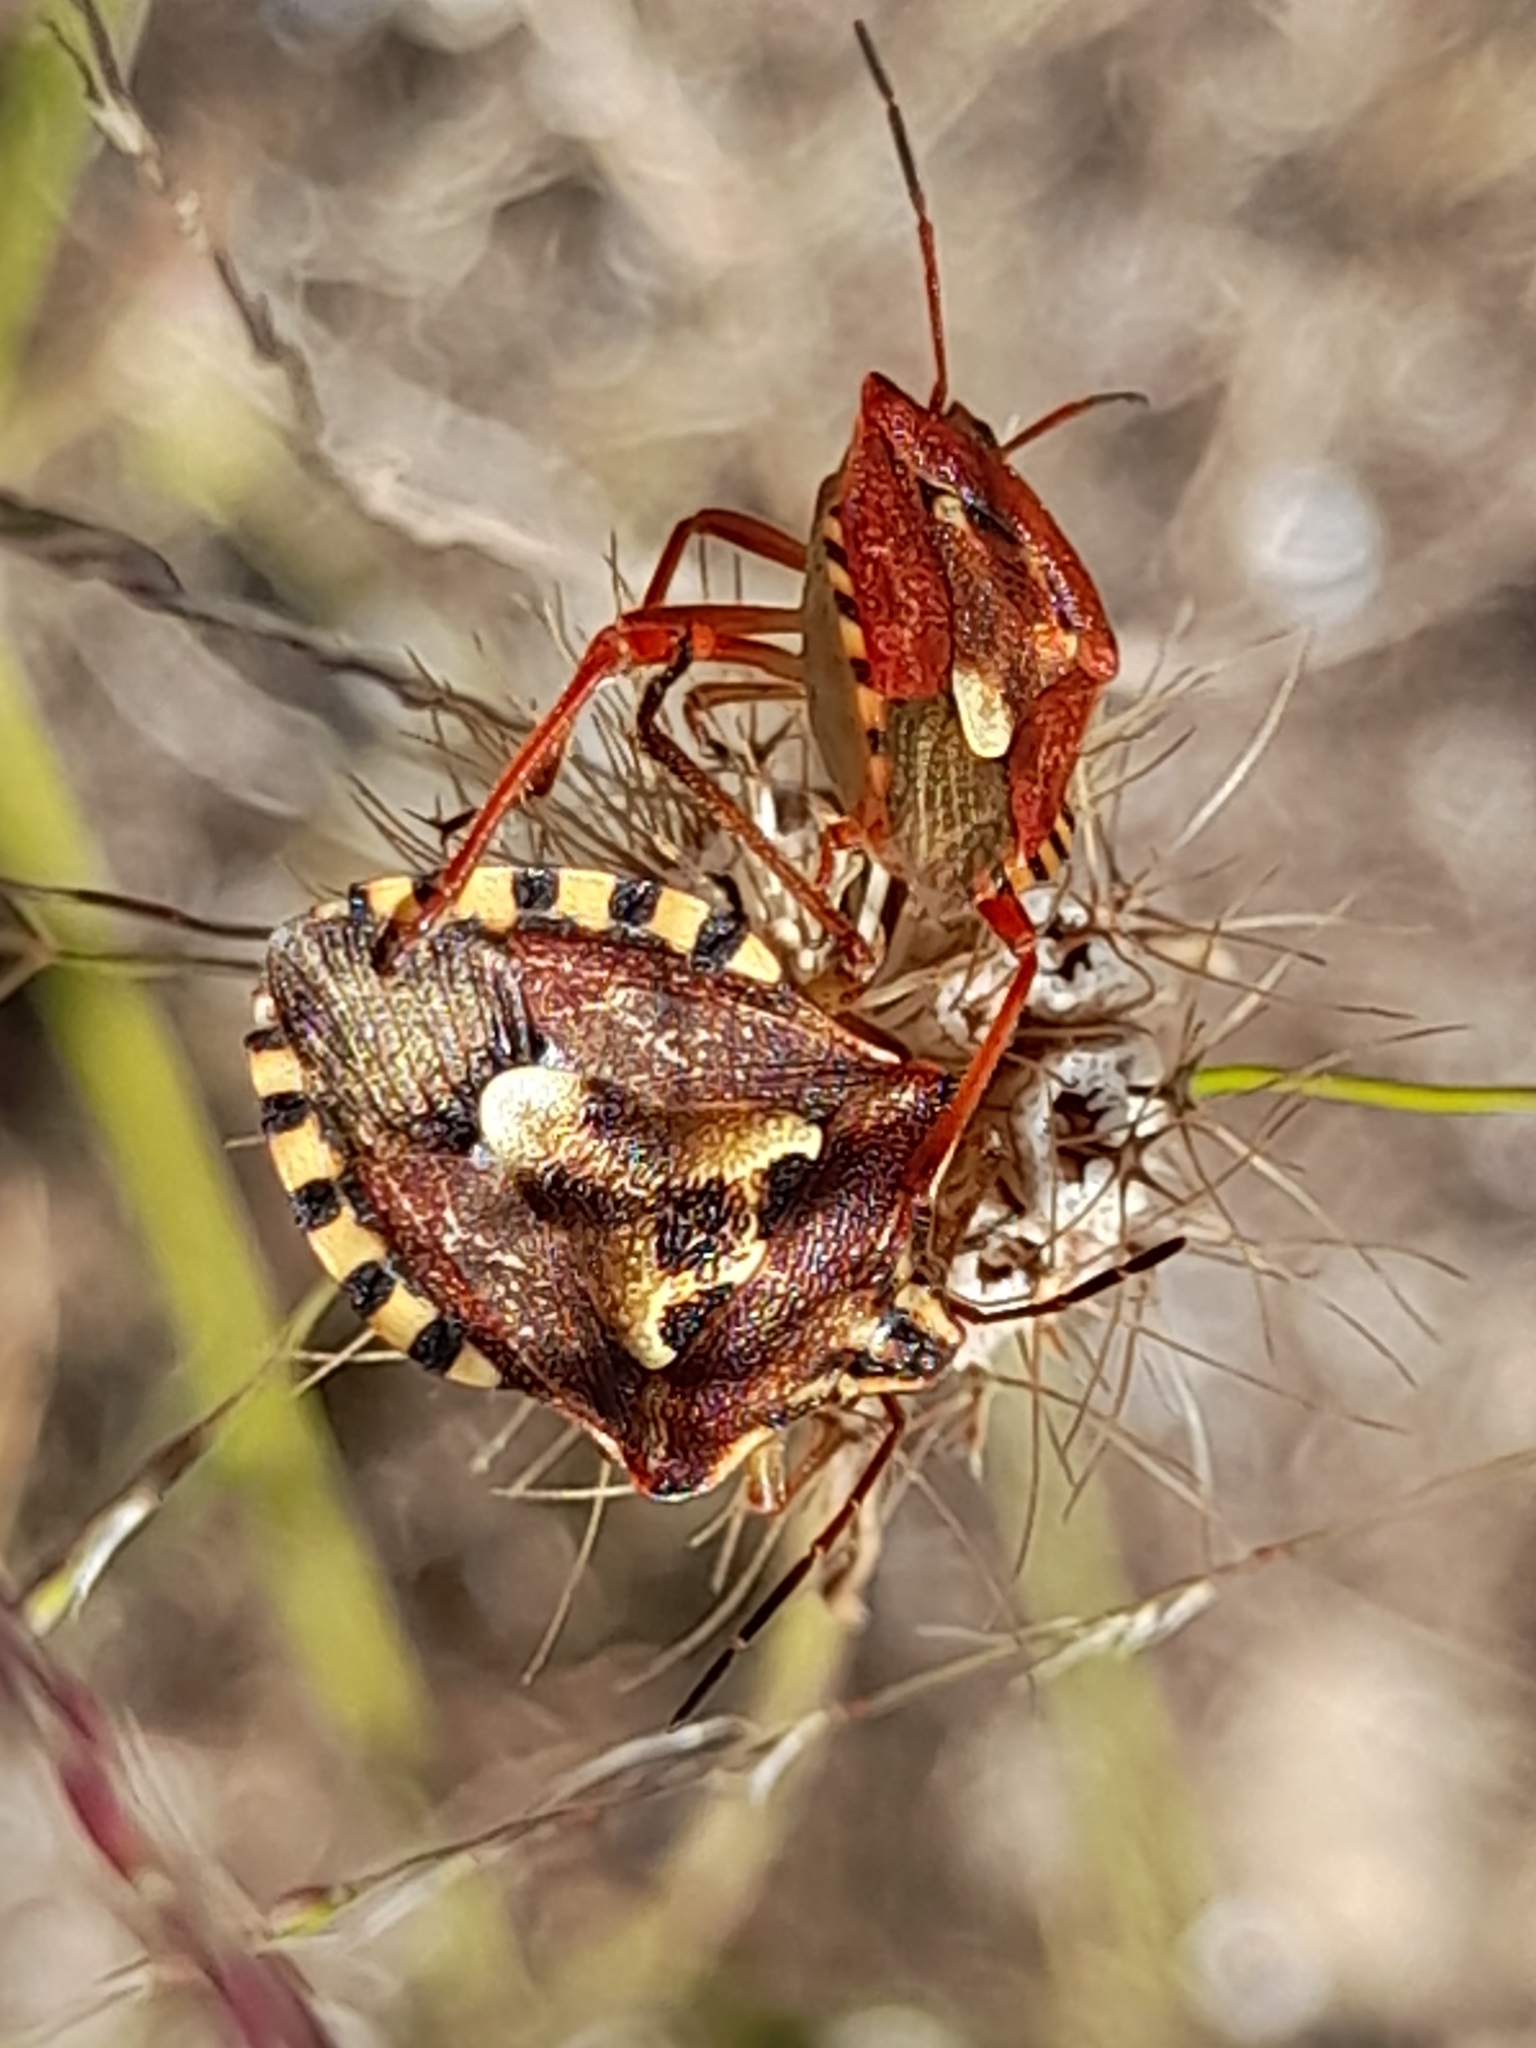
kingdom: Animalia
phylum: Arthropoda
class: Insecta
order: Hemiptera
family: Miridae
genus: Orthops
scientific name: Orthops kalmii
